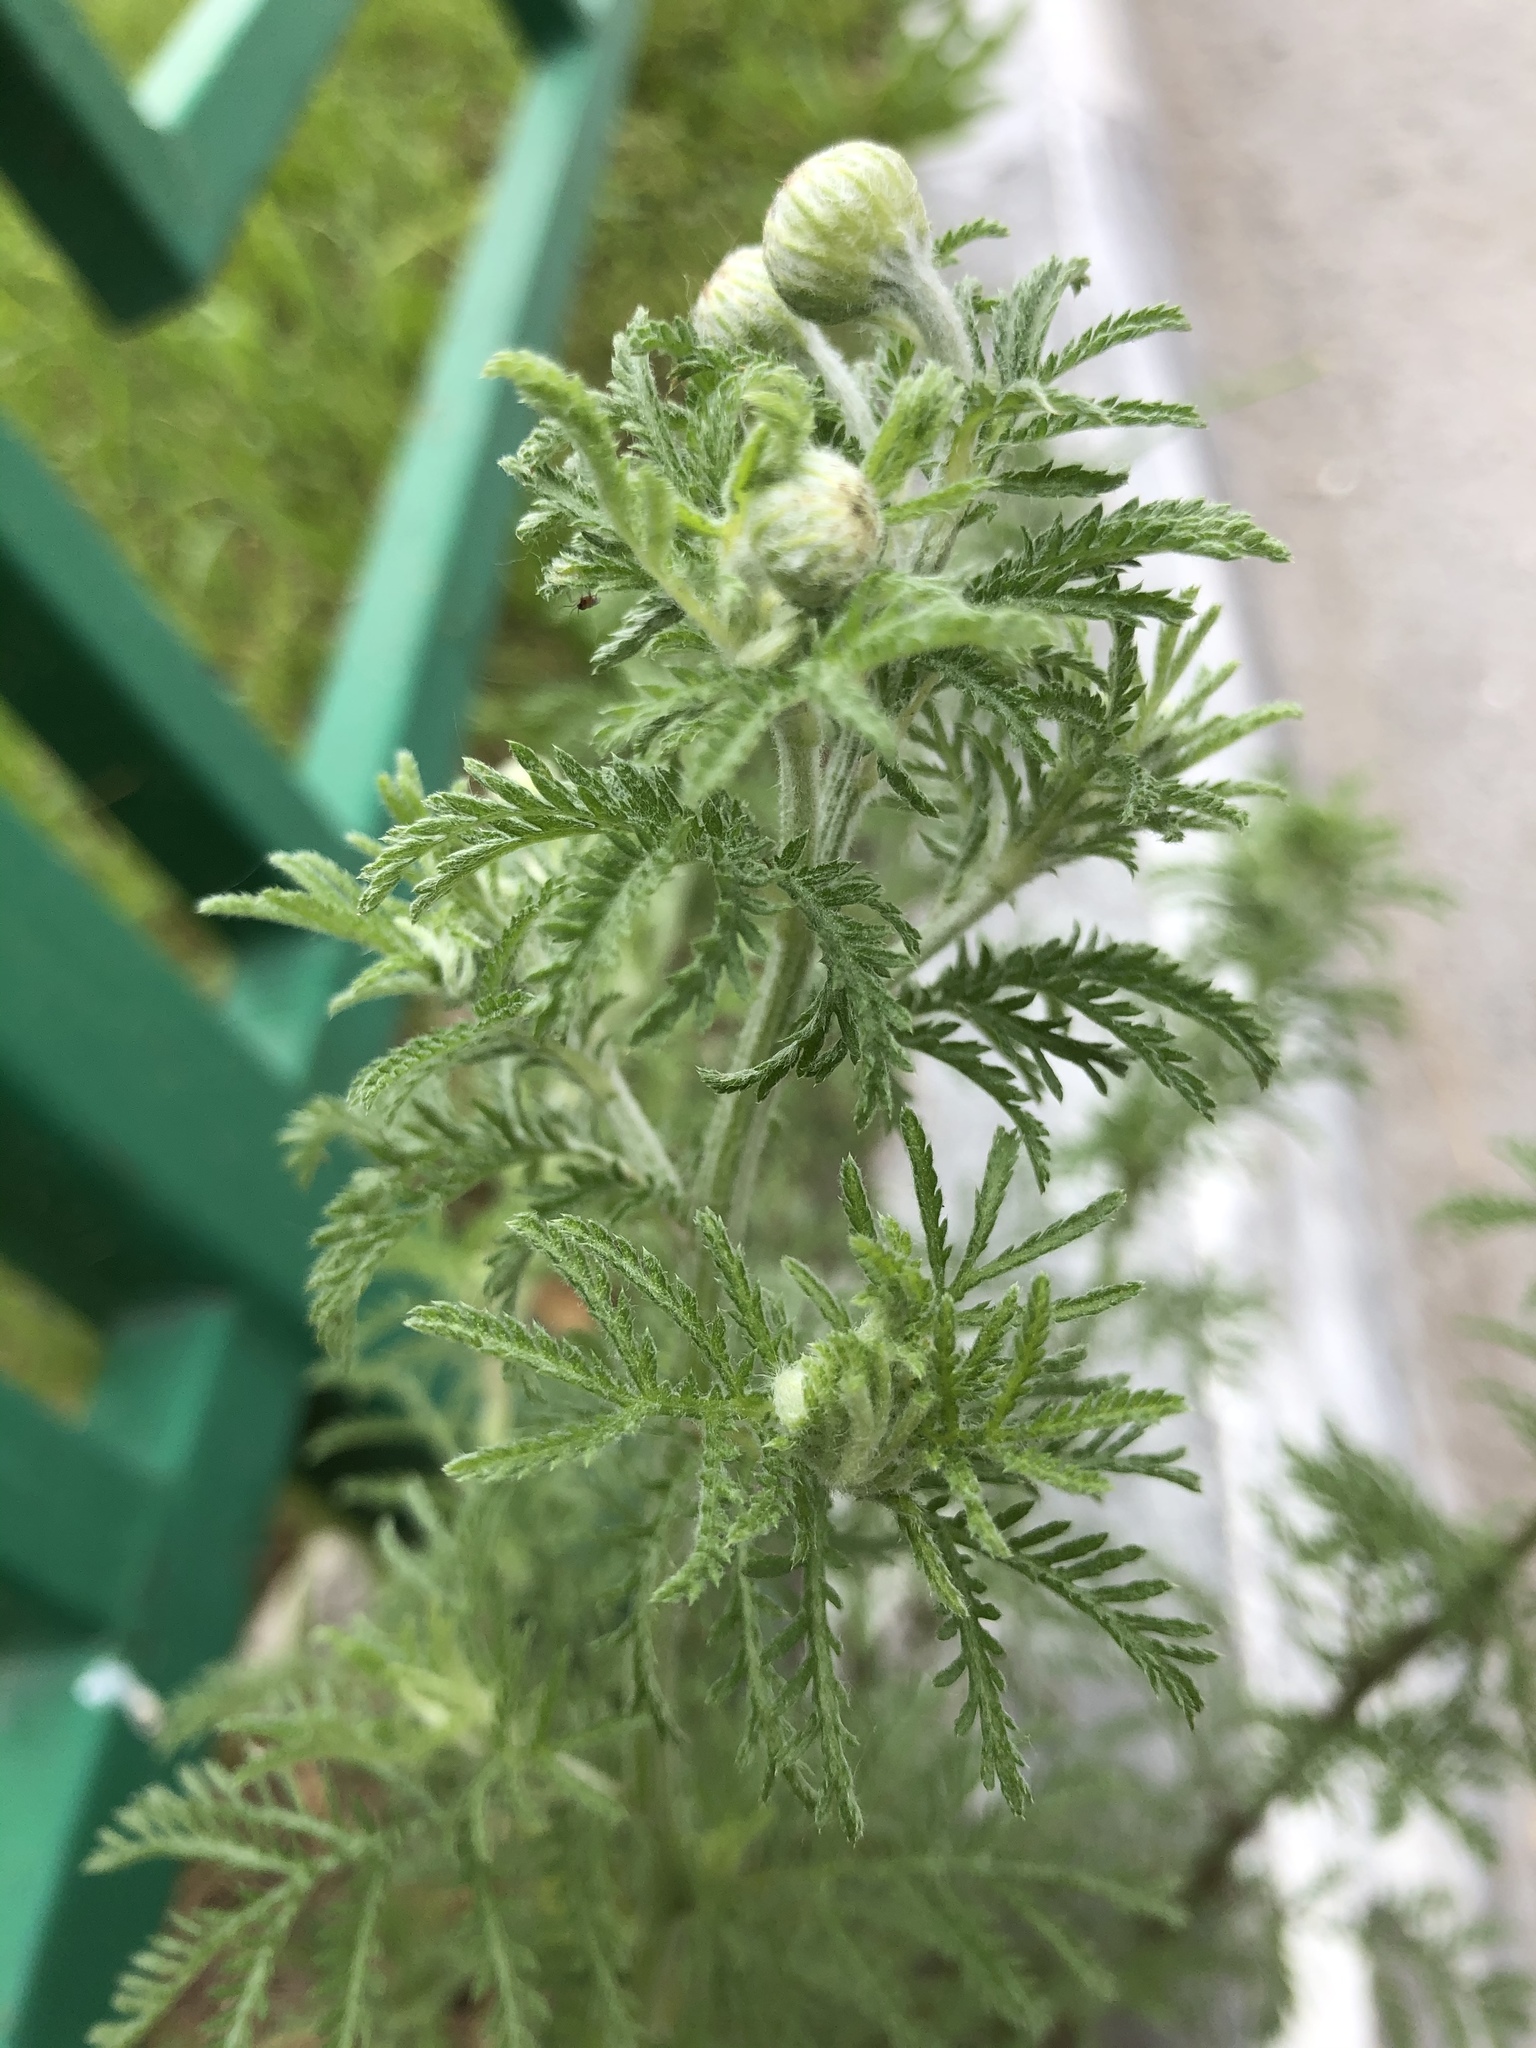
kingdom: Plantae
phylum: Tracheophyta
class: Magnoliopsida
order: Asterales
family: Asteraceae
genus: Cota
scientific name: Cota tinctoria
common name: Golden chamomile
